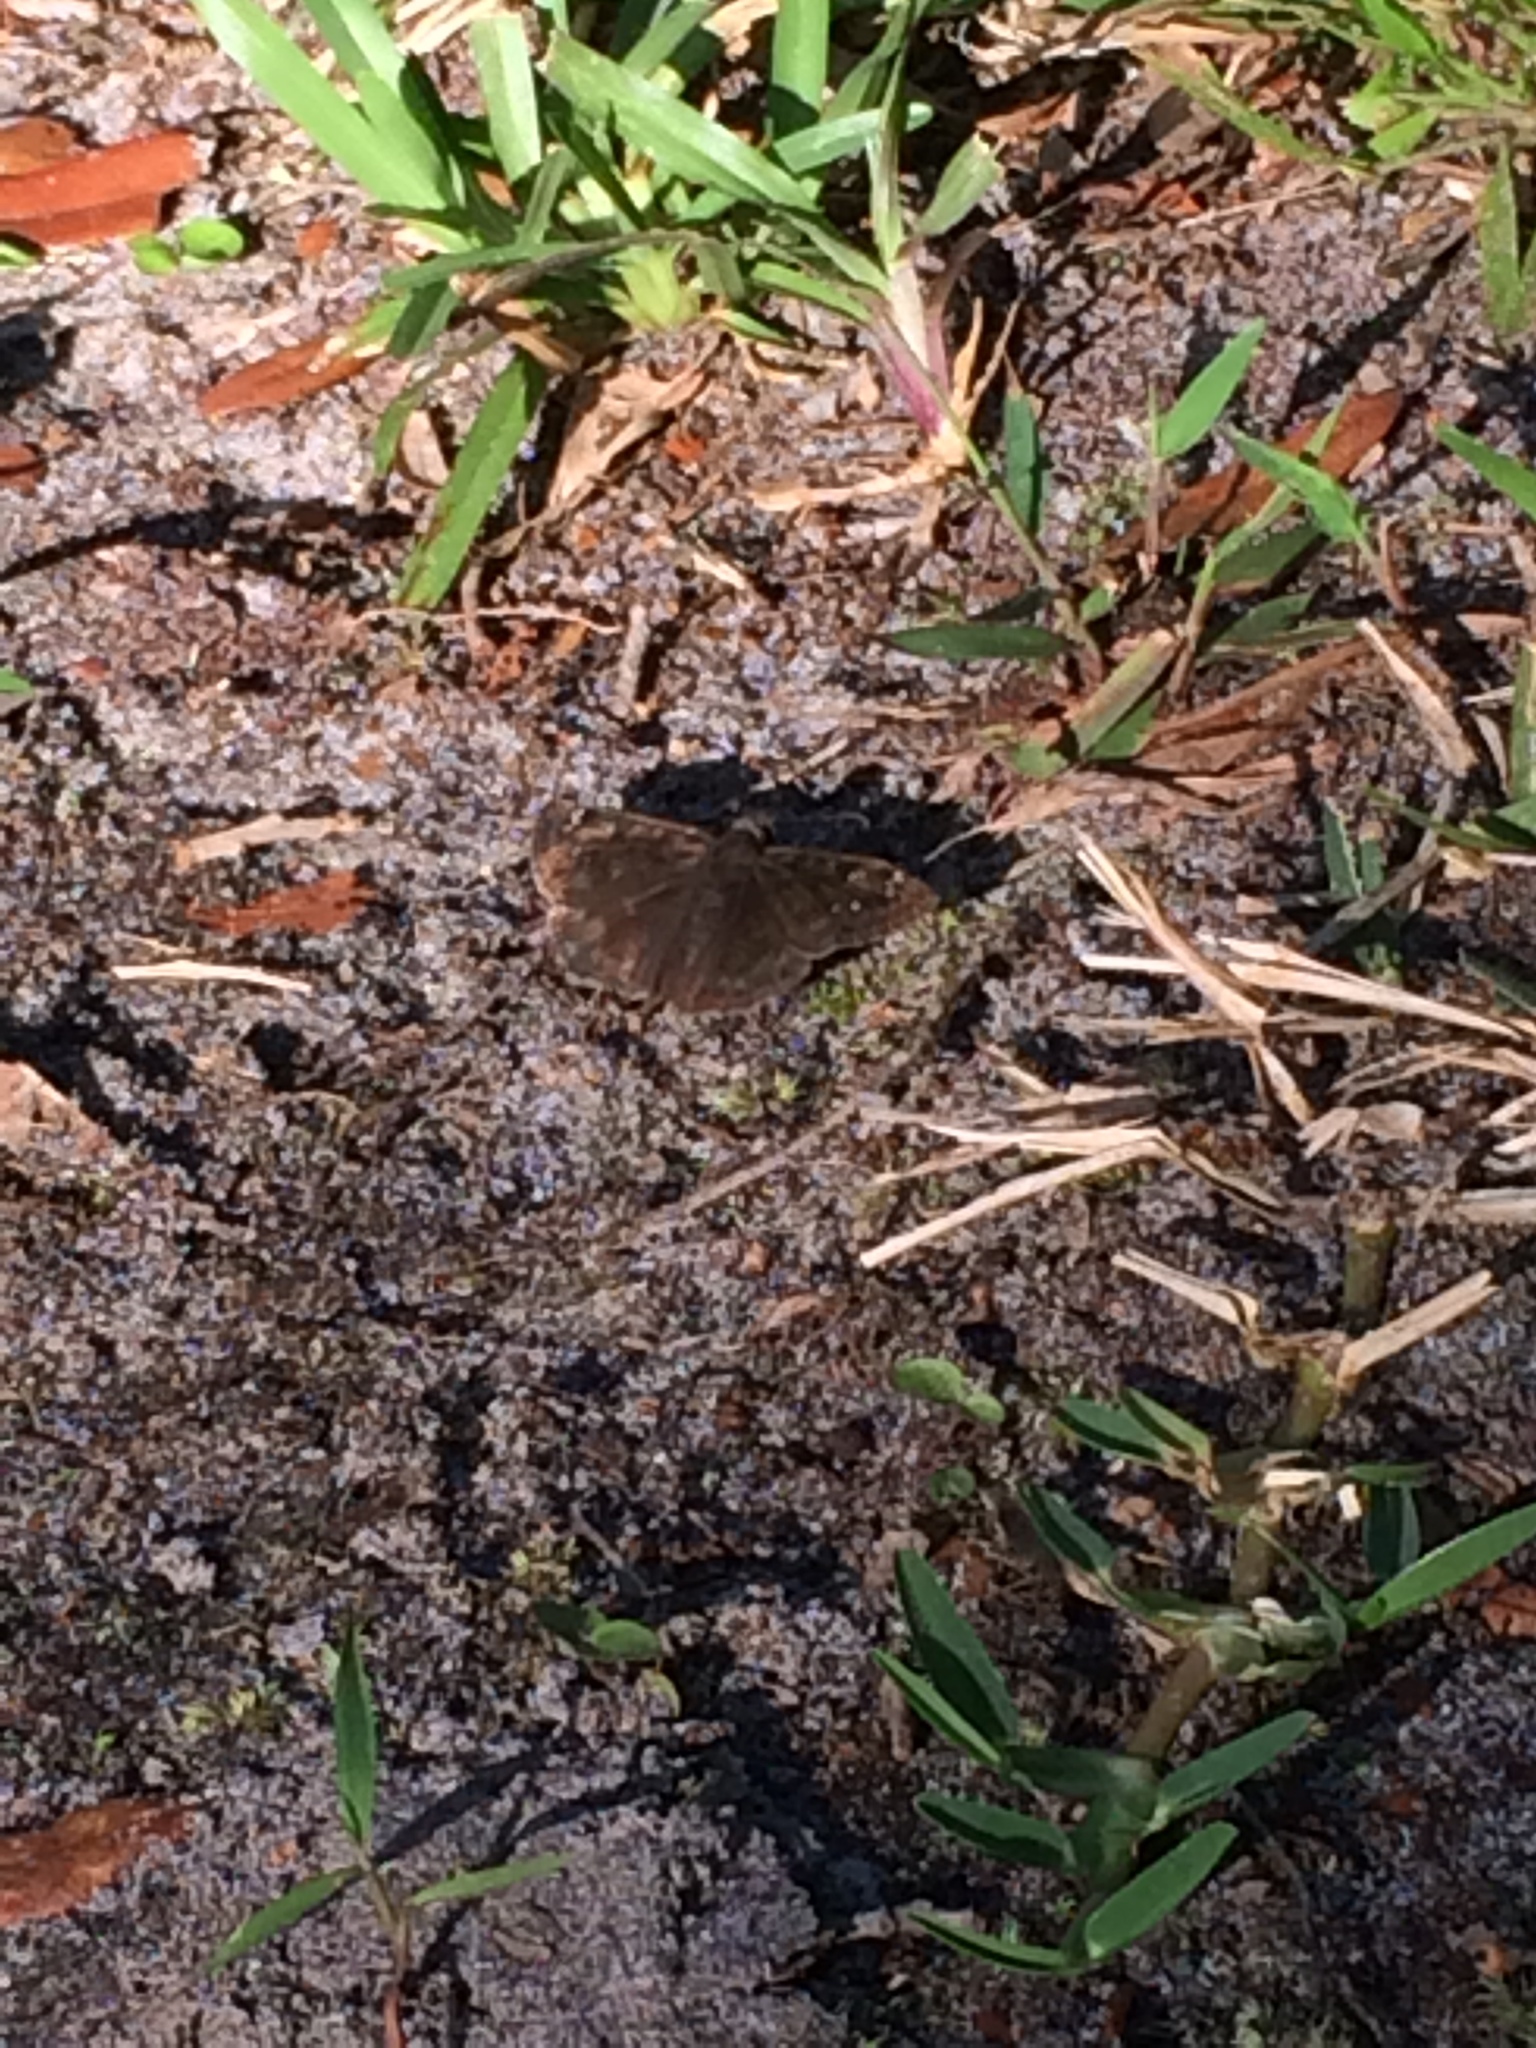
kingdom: Animalia
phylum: Arthropoda
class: Insecta
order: Lepidoptera
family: Hesperiidae
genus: Erynnis
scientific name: Erynnis horatius
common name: Horace's duskywing
